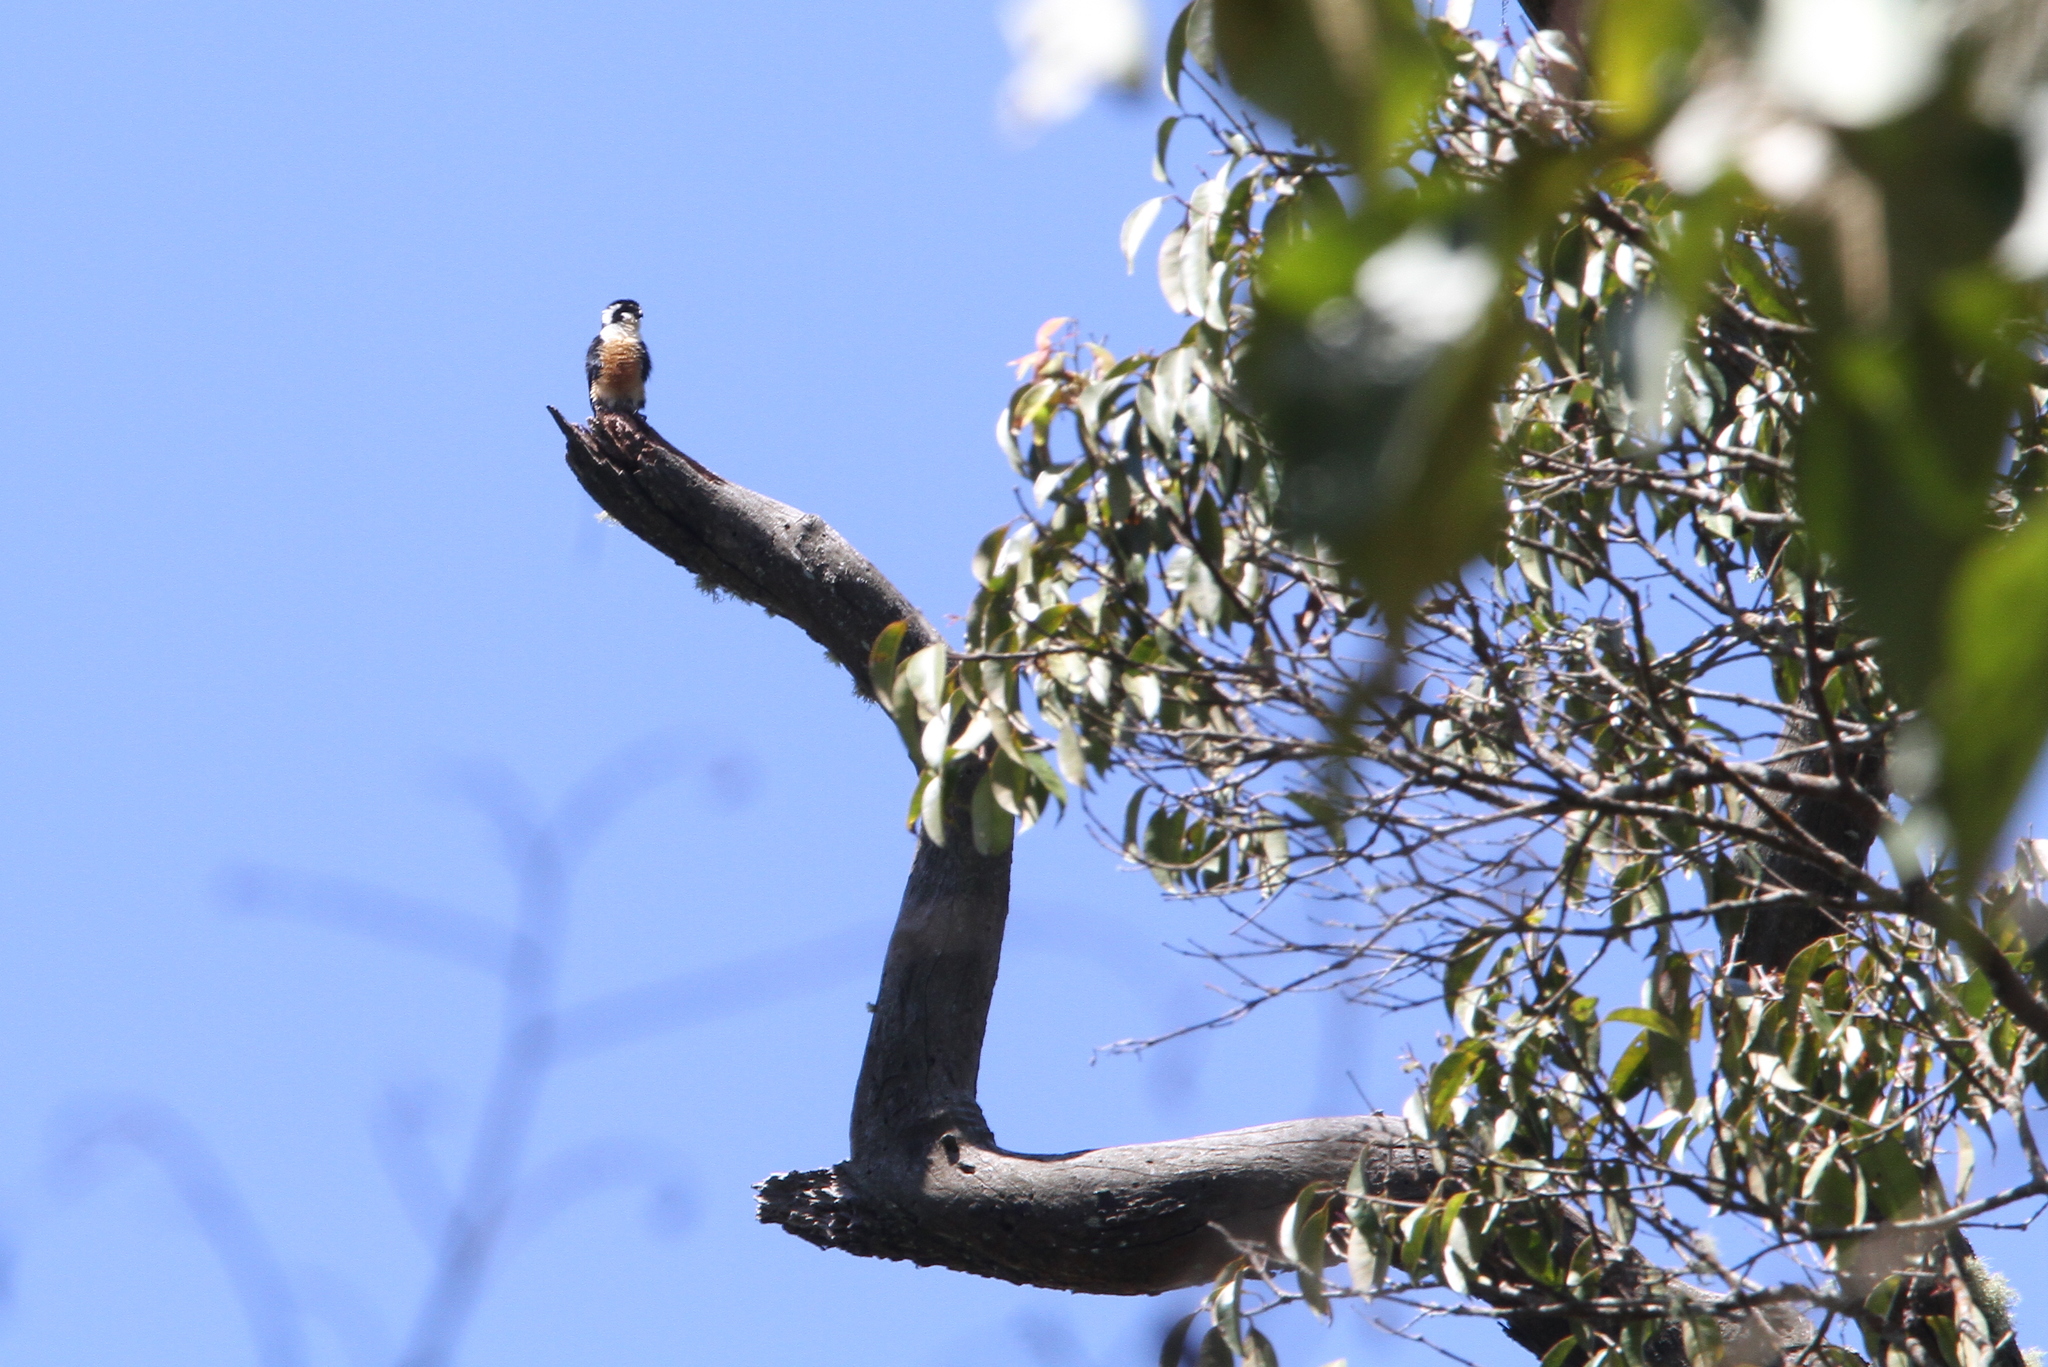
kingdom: Animalia
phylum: Chordata
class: Aves
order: Falconiformes
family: Falconidae
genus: Microhierax
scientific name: Microhierax fringillarius
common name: Black-thighed falconet
